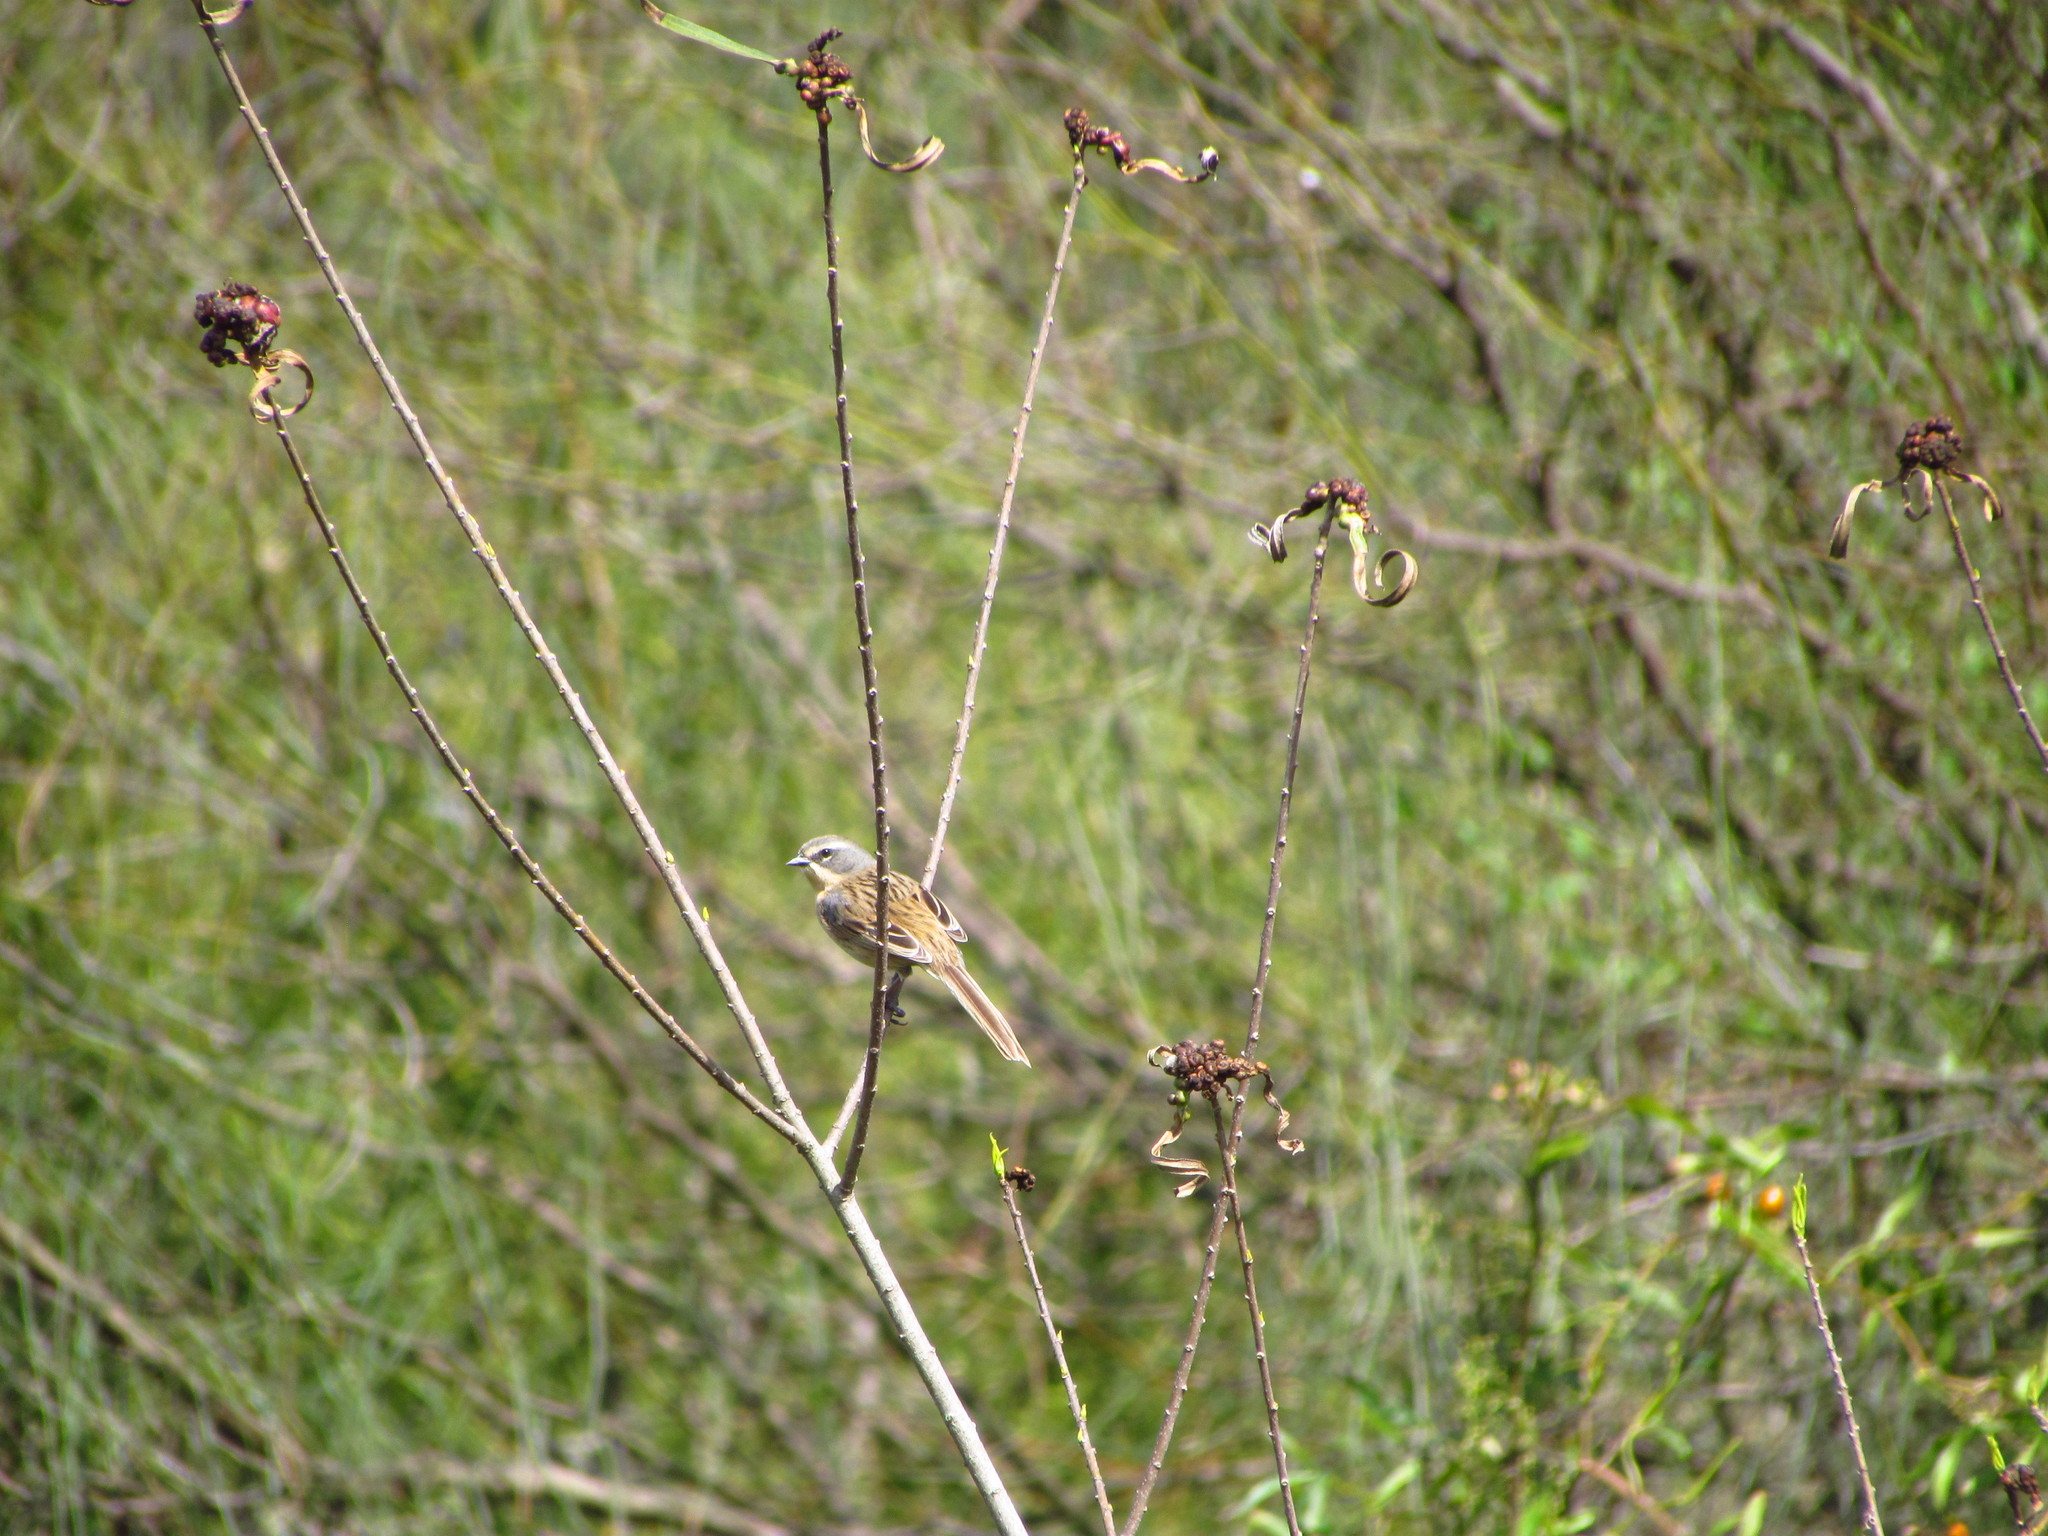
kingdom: Animalia
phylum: Chordata
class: Aves
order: Passeriformes
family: Thraupidae
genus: Donacospiza
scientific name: Donacospiza albifrons
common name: Long-tailed reed finch
